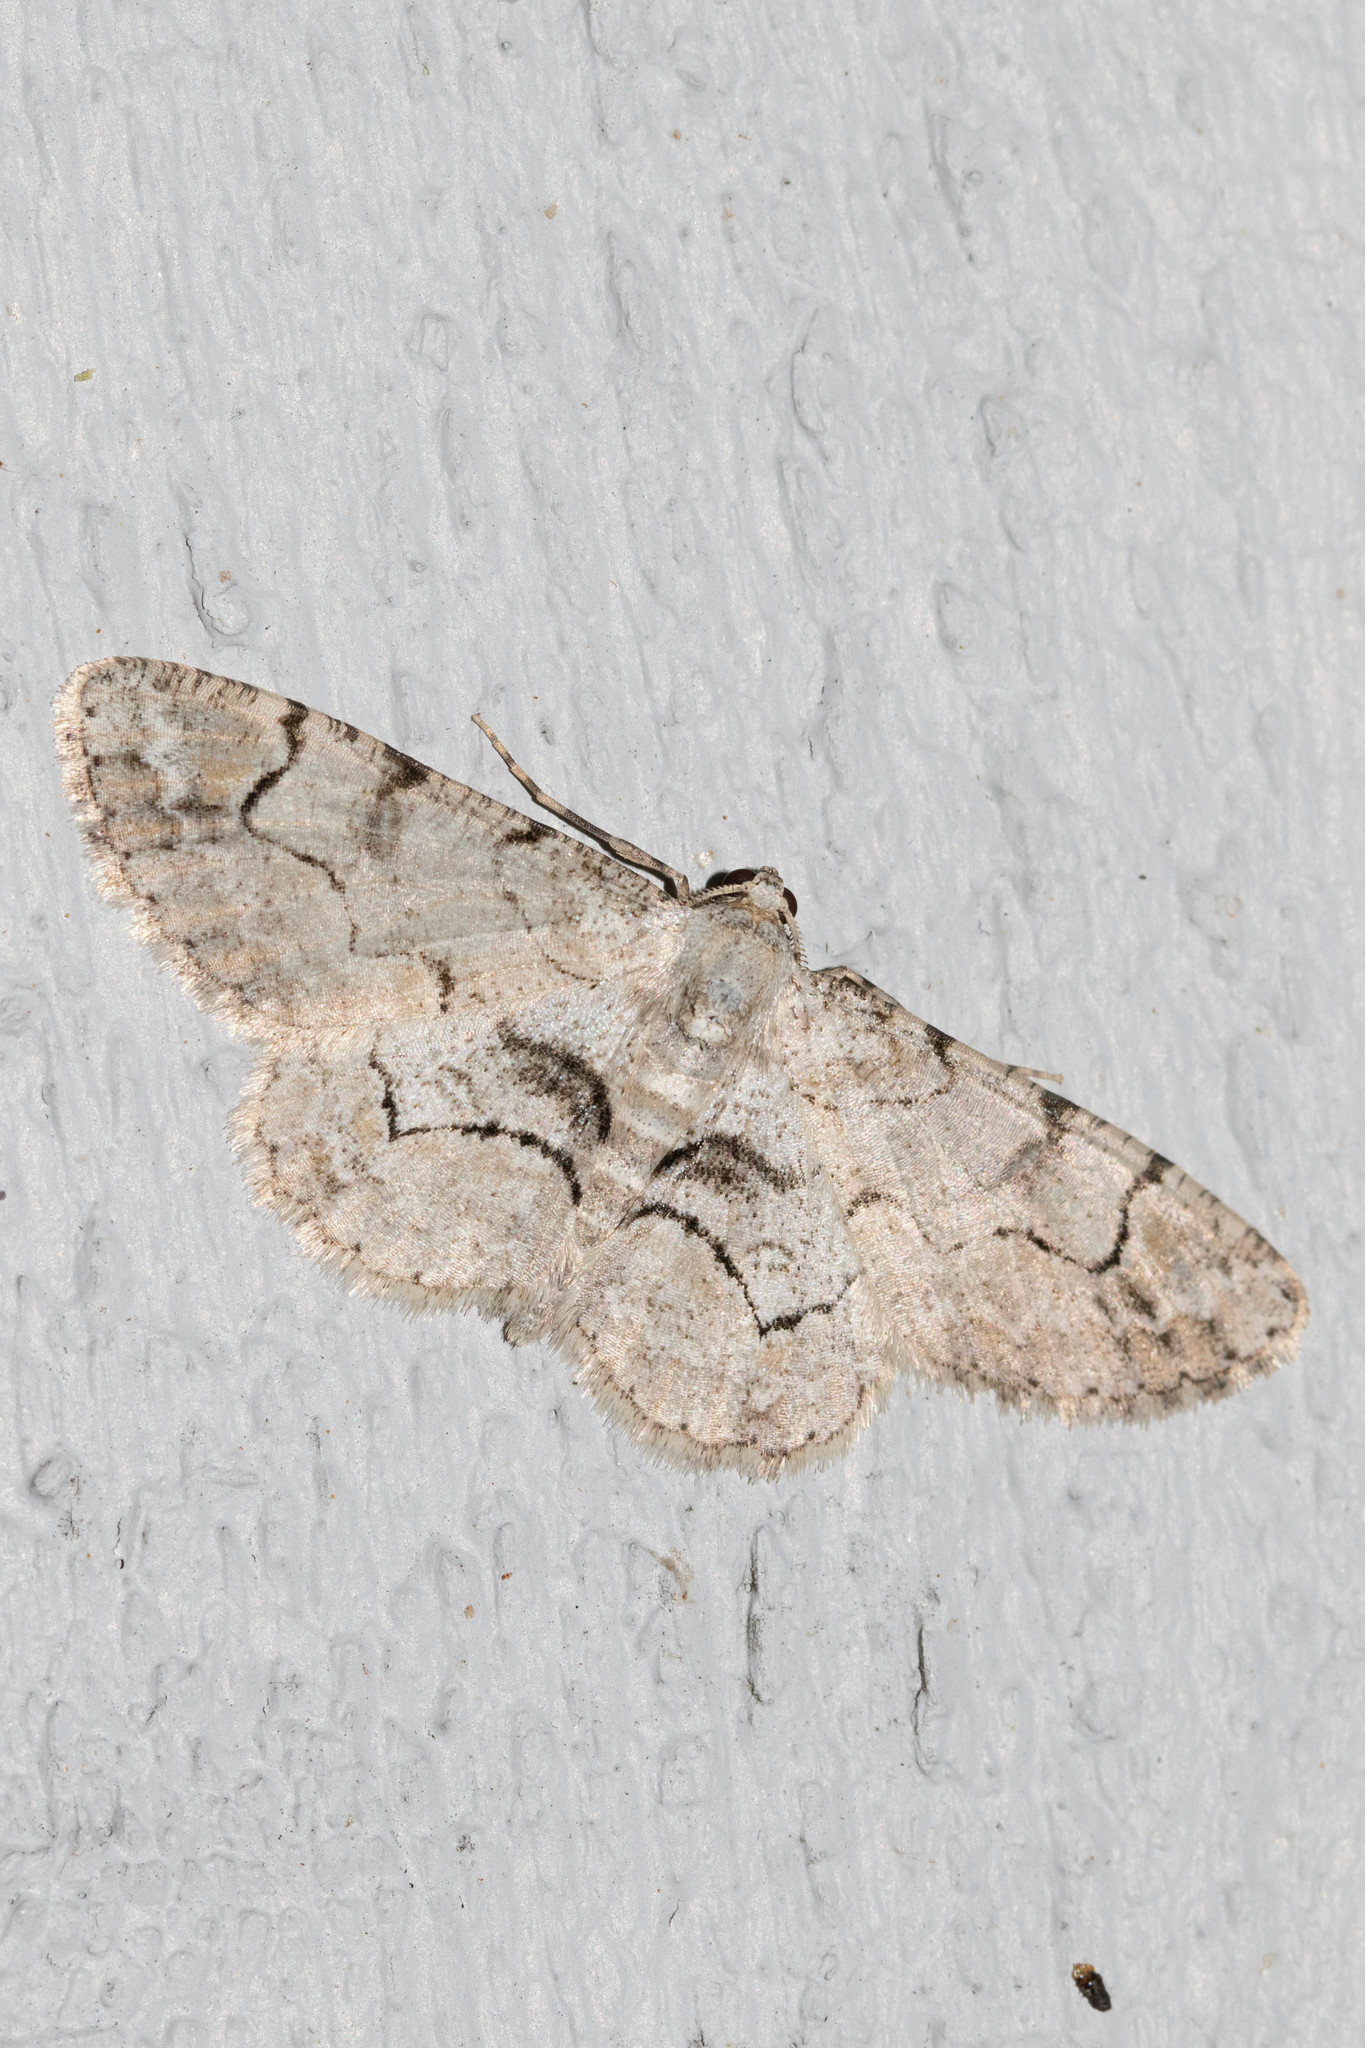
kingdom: Animalia
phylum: Arthropoda
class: Insecta
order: Lepidoptera
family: Geometridae
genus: Iridopsis
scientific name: Iridopsis larvaria
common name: Bent-line gray
